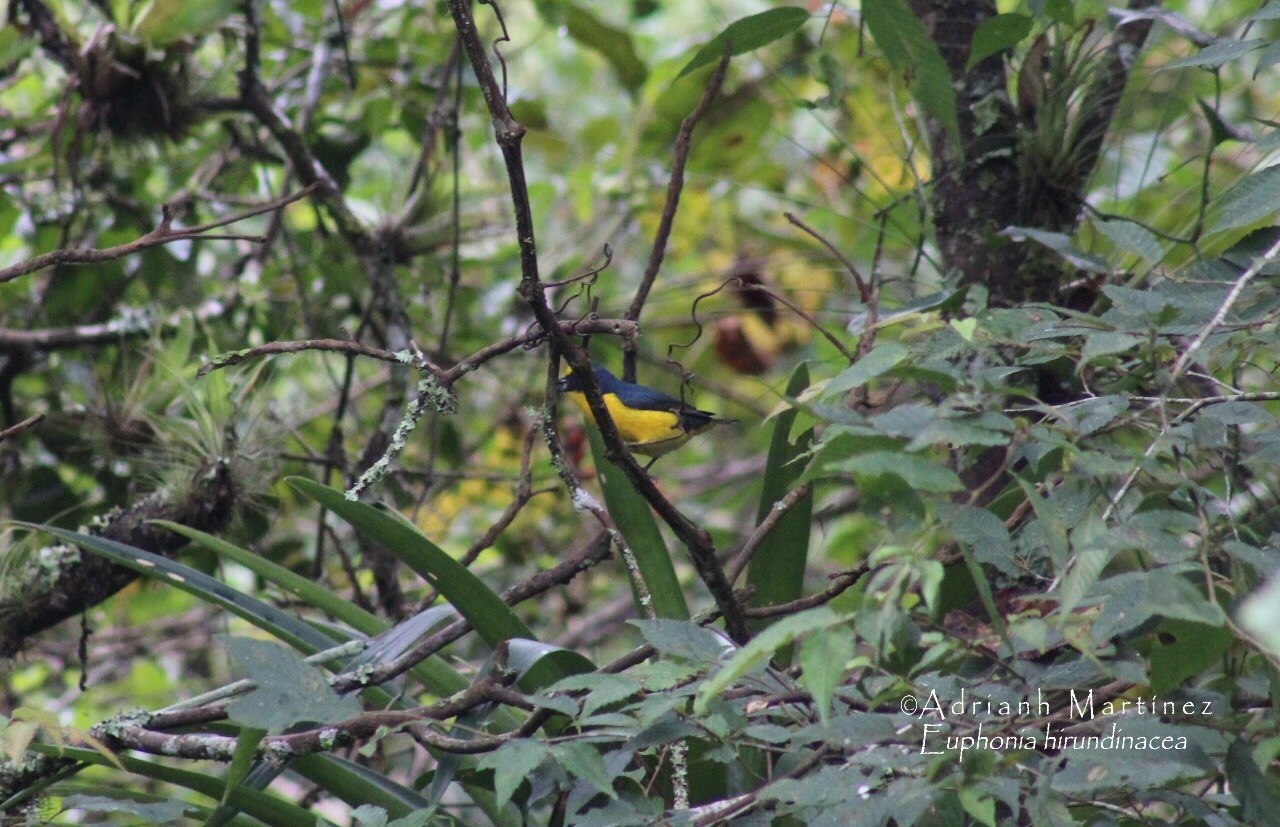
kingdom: Animalia
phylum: Chordata
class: Aves
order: Passeriformes
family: Fringillidae
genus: Euphonia
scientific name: Euphonia hirundinacea
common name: Yellow-throated euphonia
